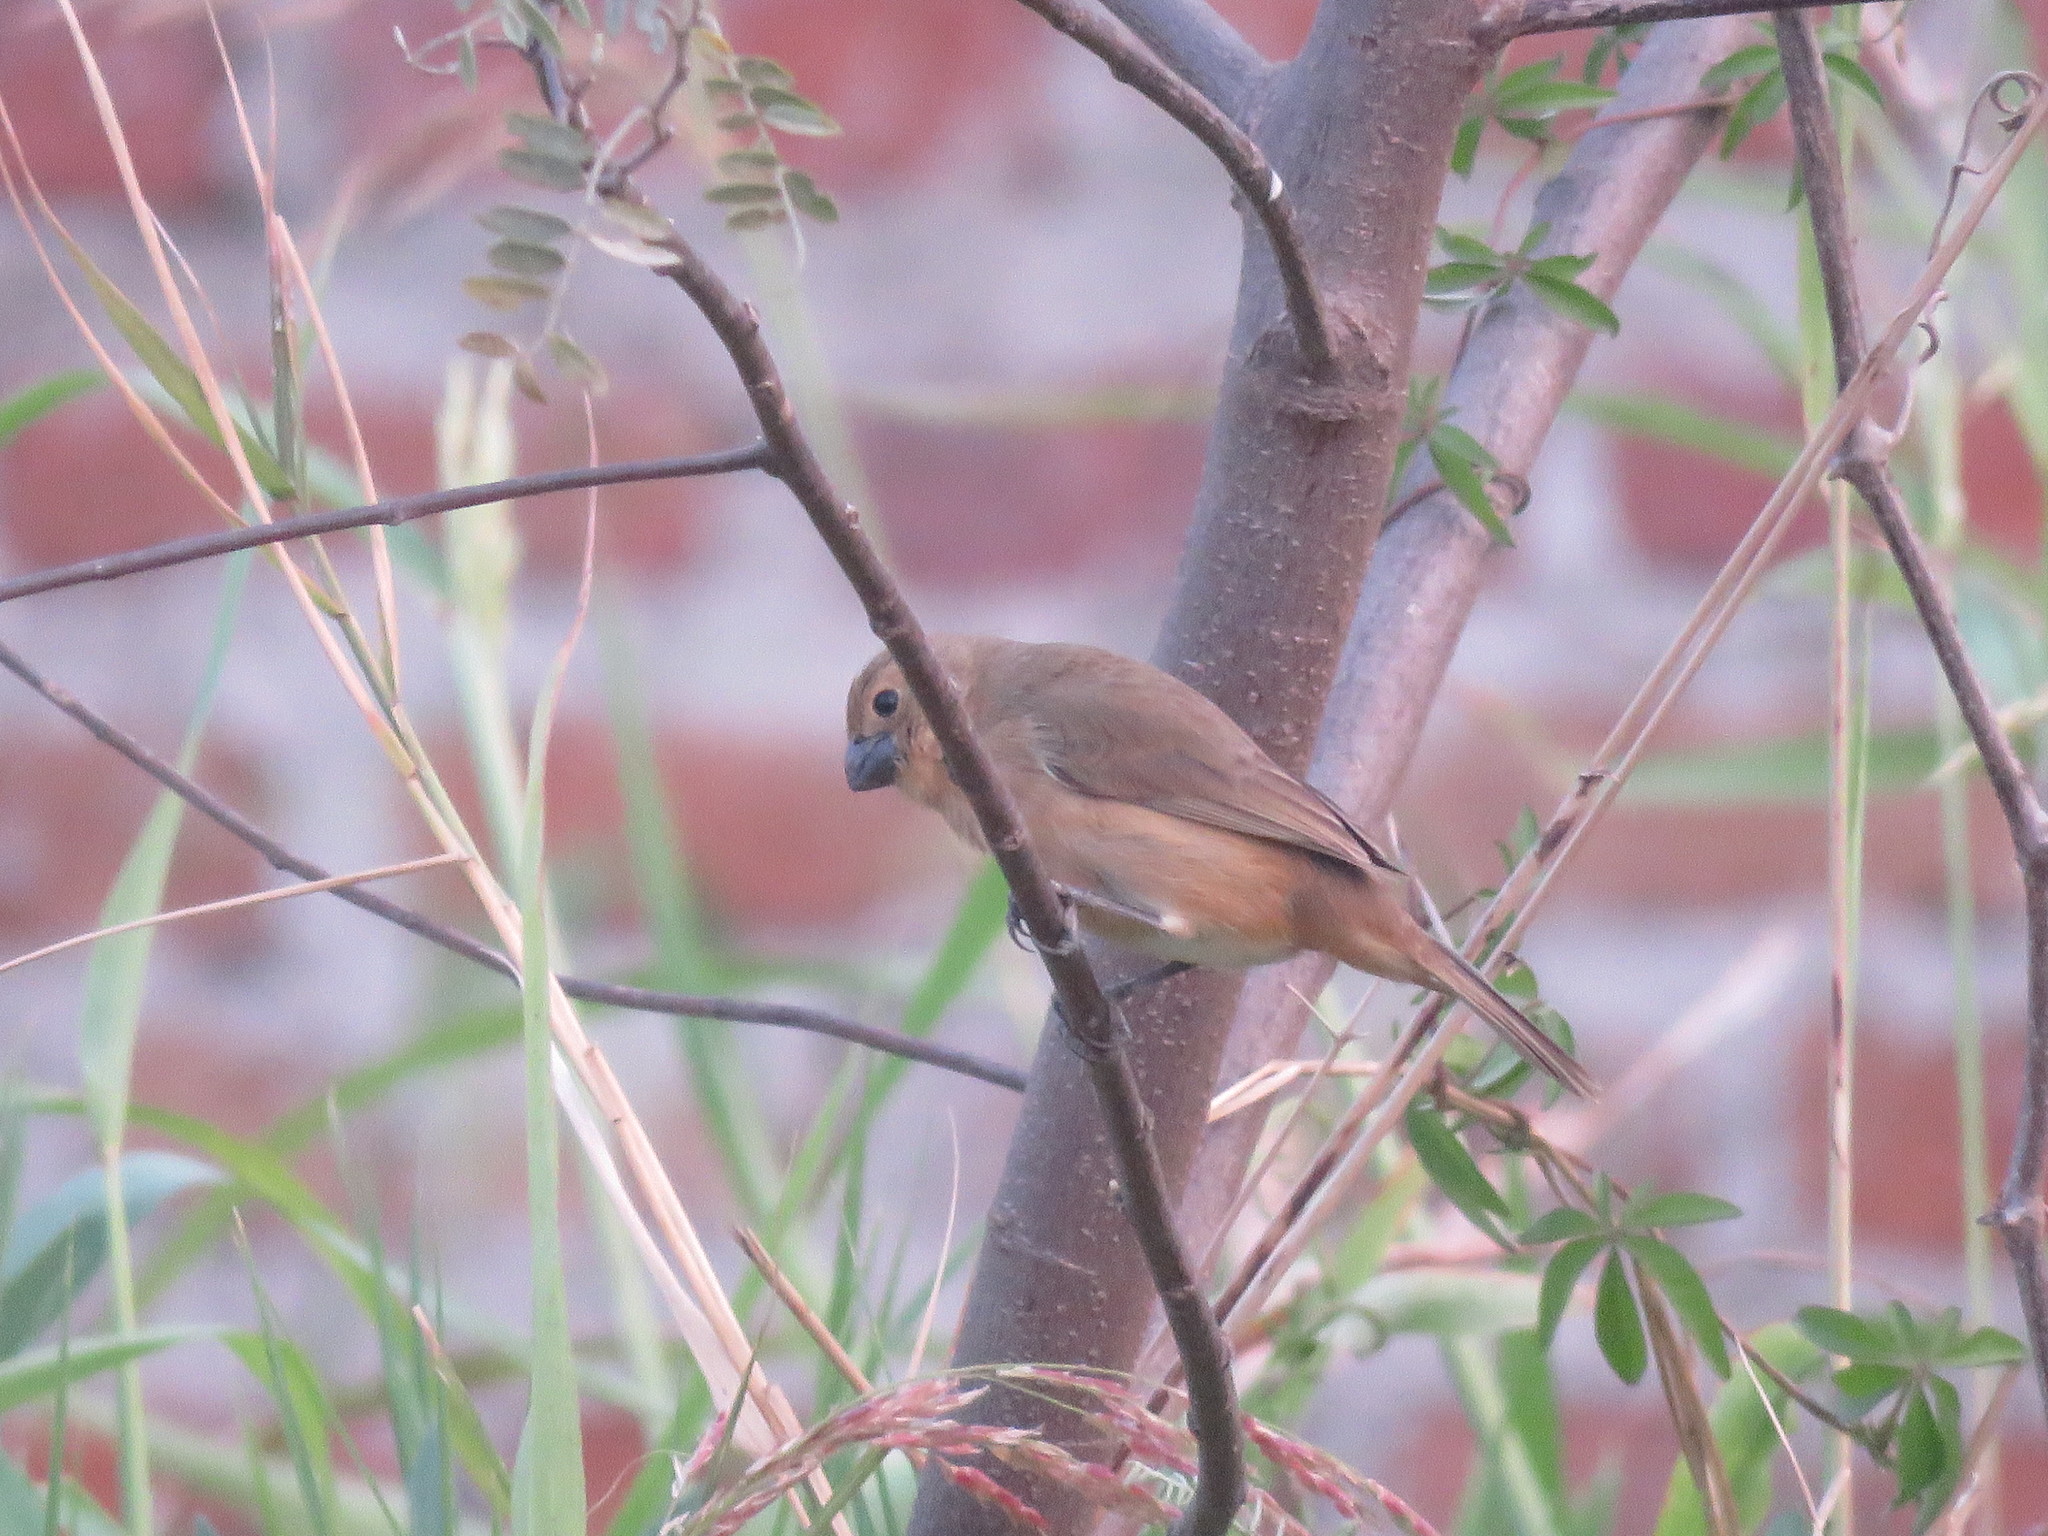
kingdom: Animalia
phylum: Chordata
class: Aves
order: Passeriformes
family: Thraupidae
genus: Sporophila
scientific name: Sporophila collaris
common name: Rusty-collared seedeater
